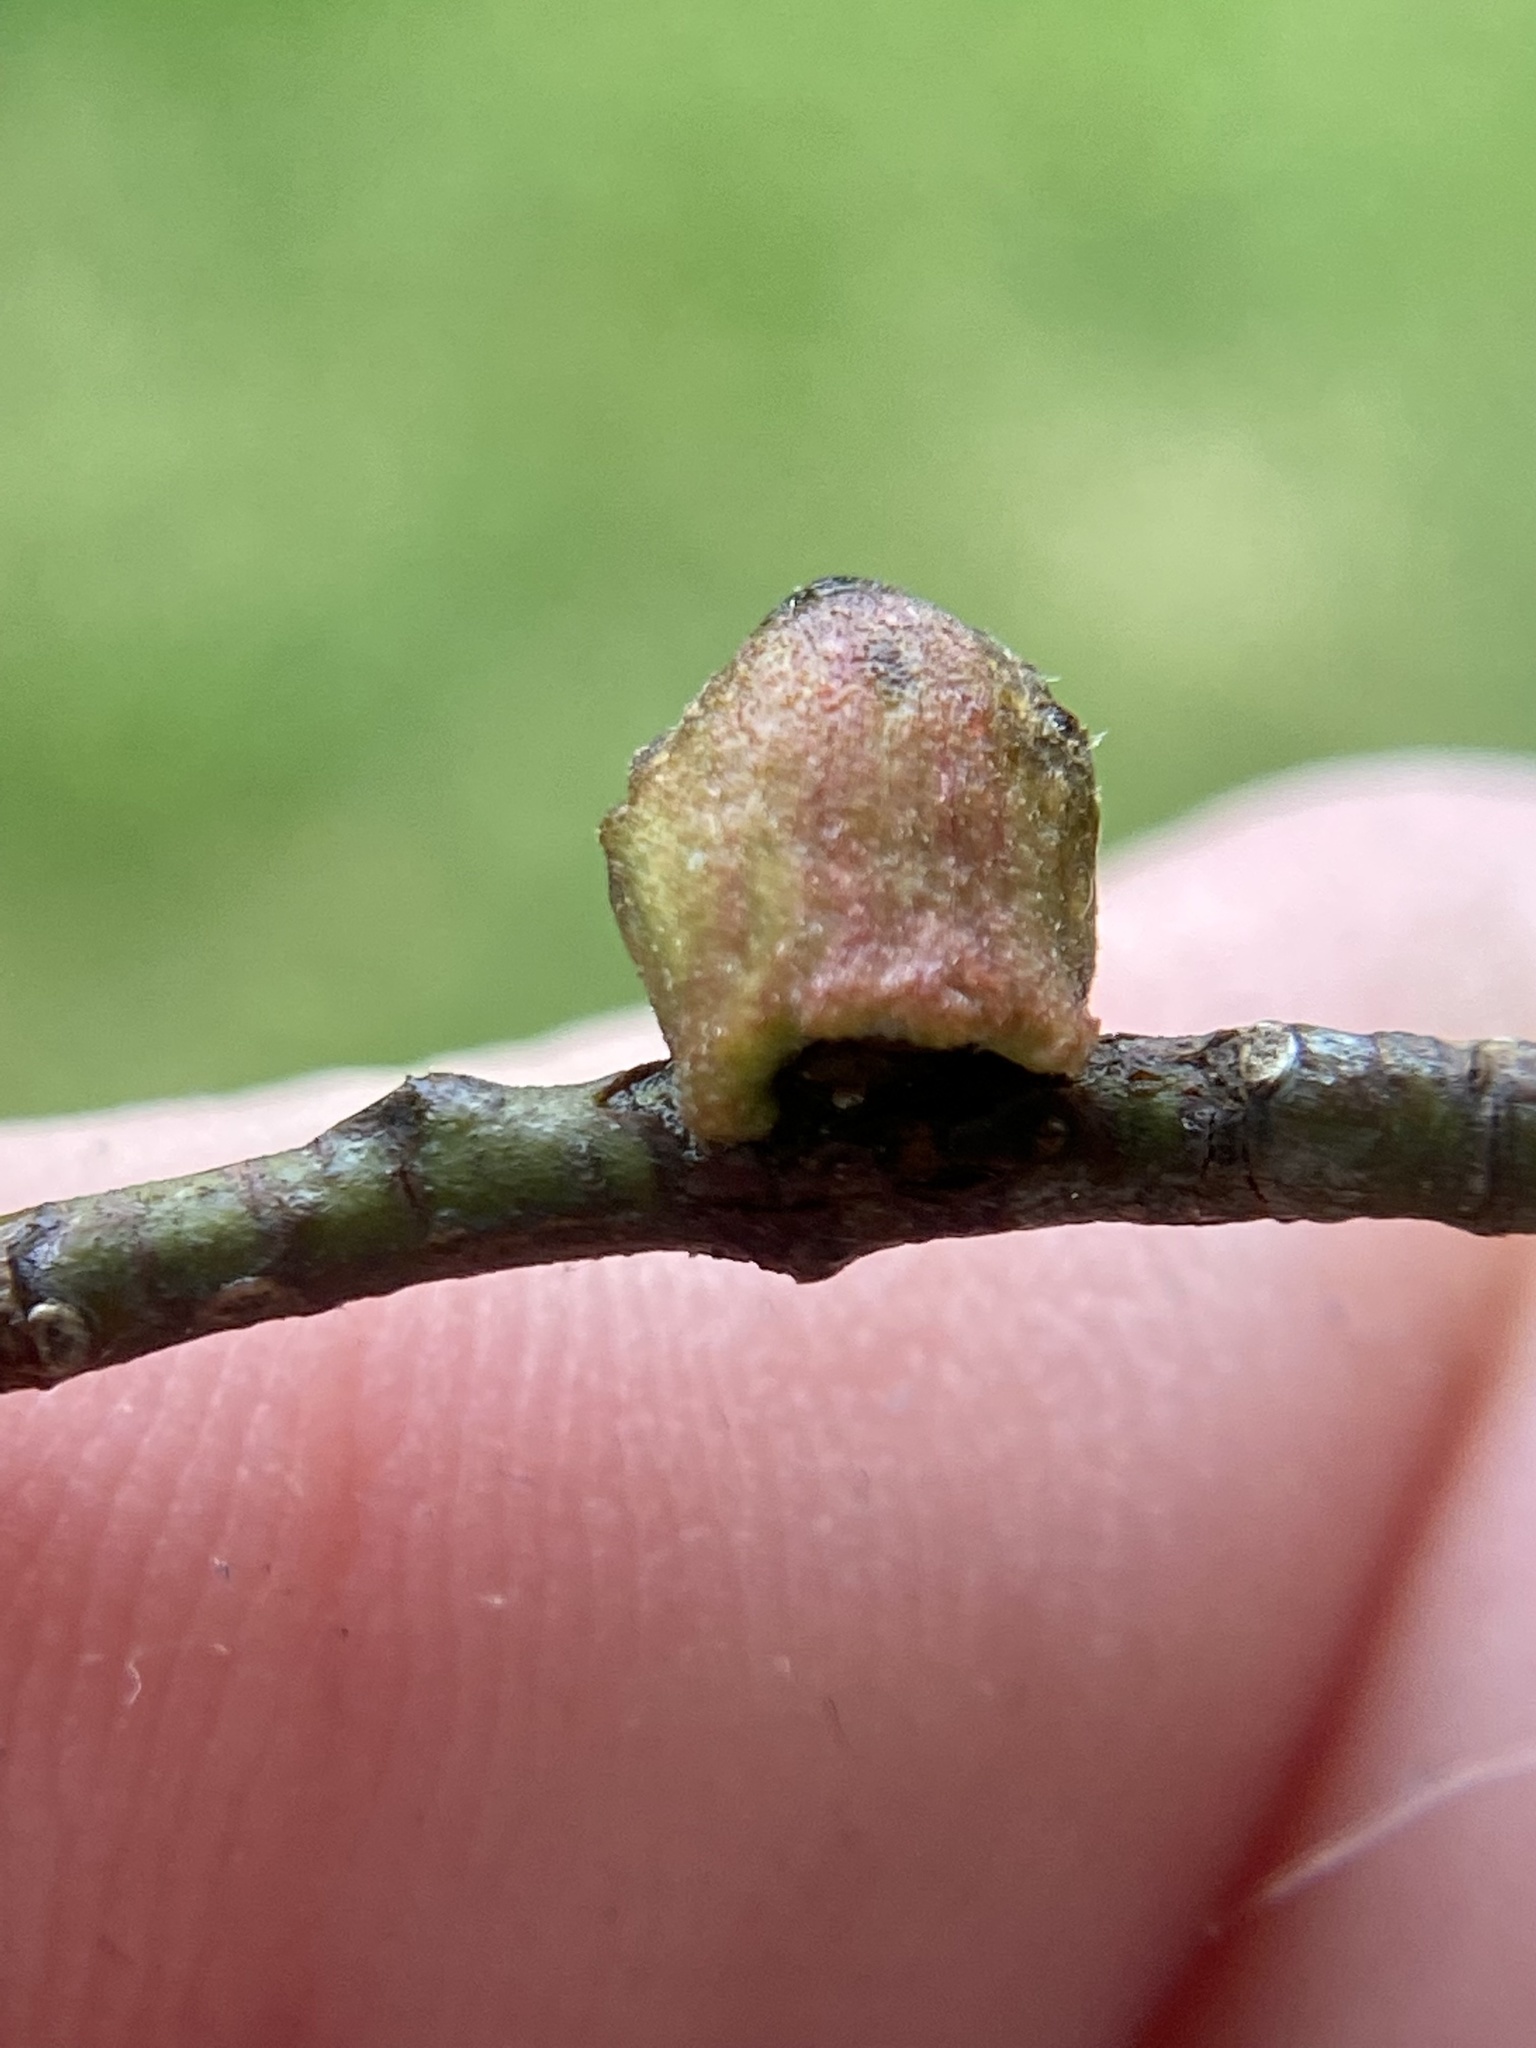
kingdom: Animalia
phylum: Arthropoda
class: Insecta
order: Hymenoptera
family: Cynipidae
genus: Callirhytis
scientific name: Callirhytis
